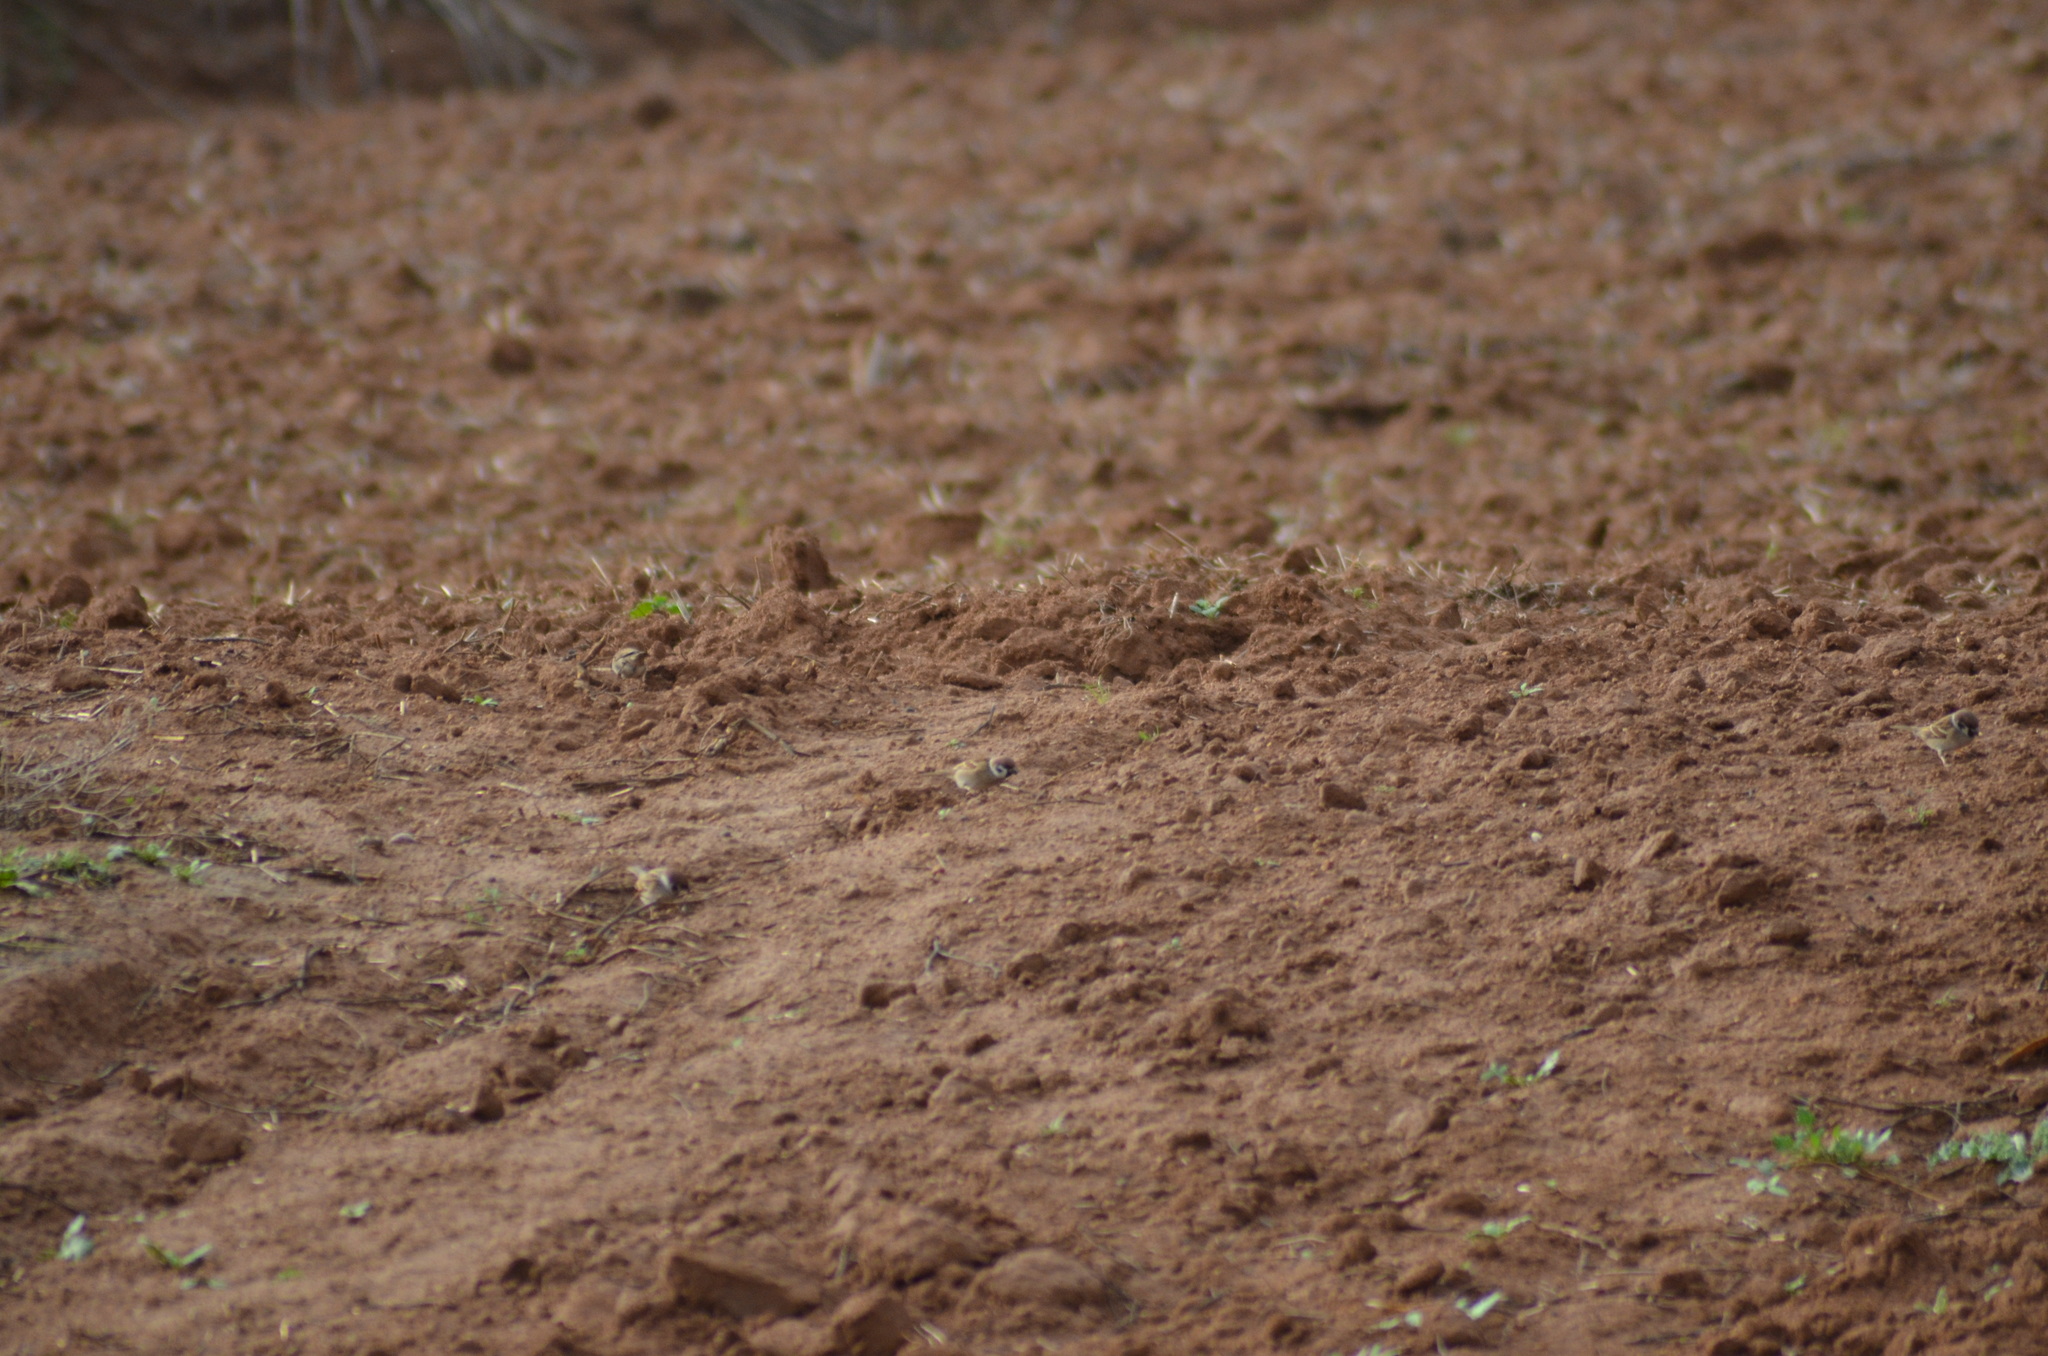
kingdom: Animalia
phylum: Chordata
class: Aves
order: Passeriformes
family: Passeridae
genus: Passer
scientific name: Passer montanus
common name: Eurasian tree sparrow
